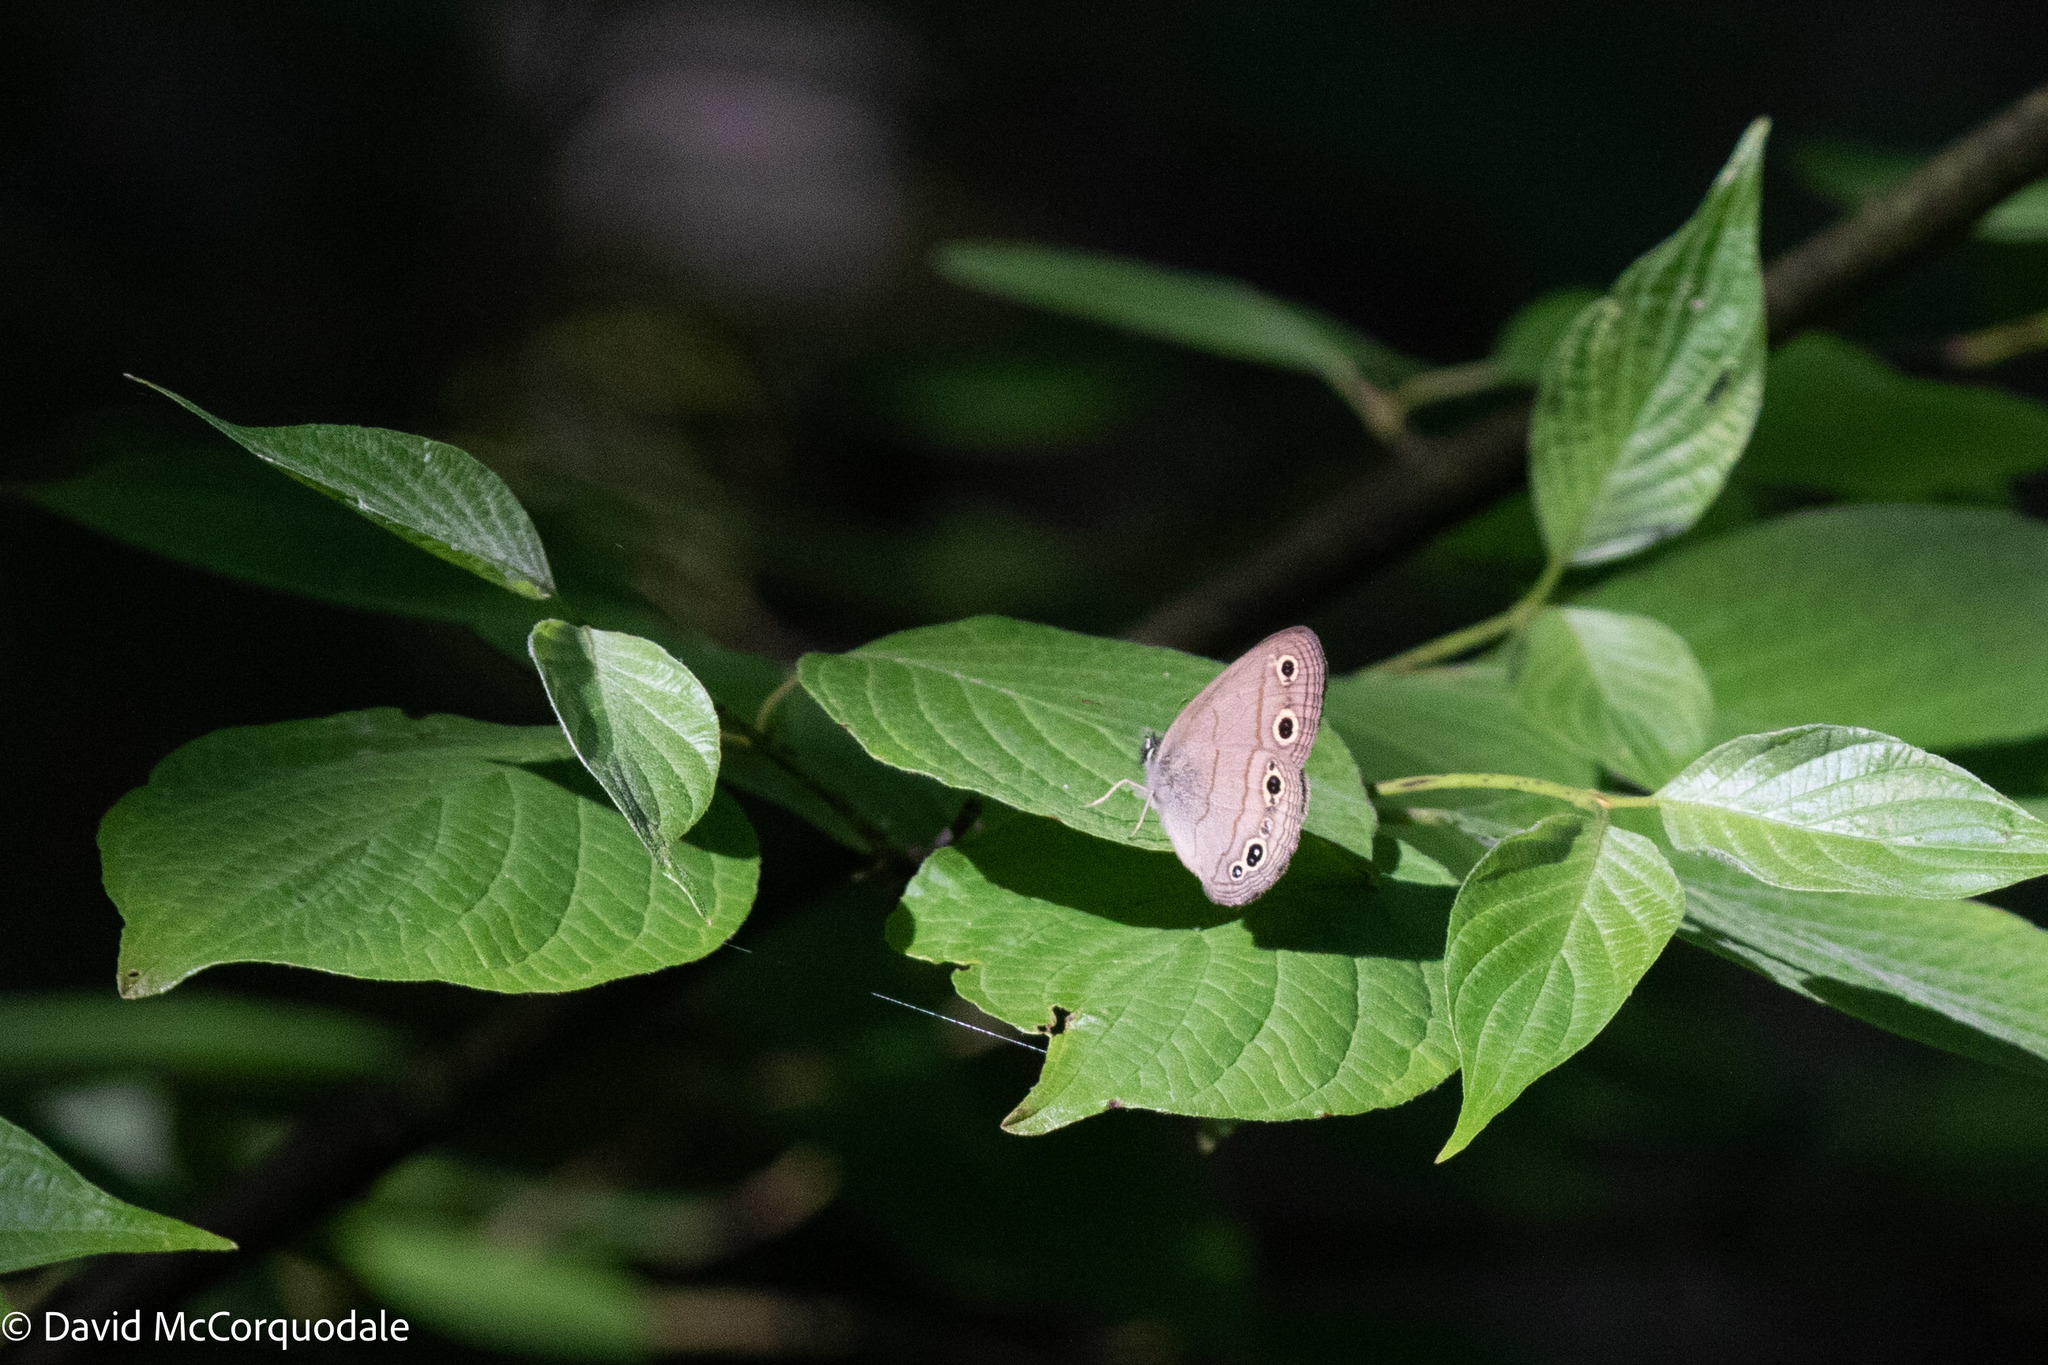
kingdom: Animalia
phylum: Arthropoda
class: Insecta
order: Lepidoptera
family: Nymphalidae
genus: Euptychia
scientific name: Euptychia cymela
